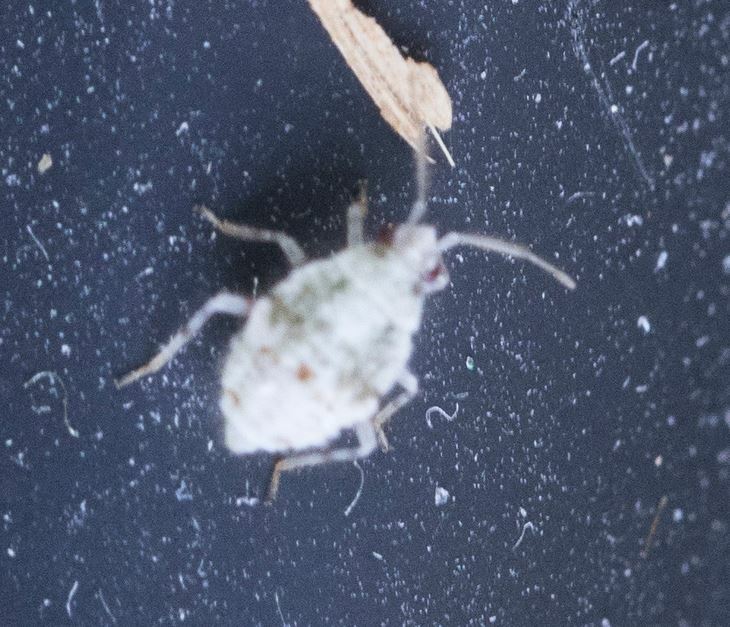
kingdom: Animalia
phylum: Arthropoda
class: Insecta
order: Hemiptera
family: Miridae
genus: Deraeocoris
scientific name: Deraeocoris lutescens
